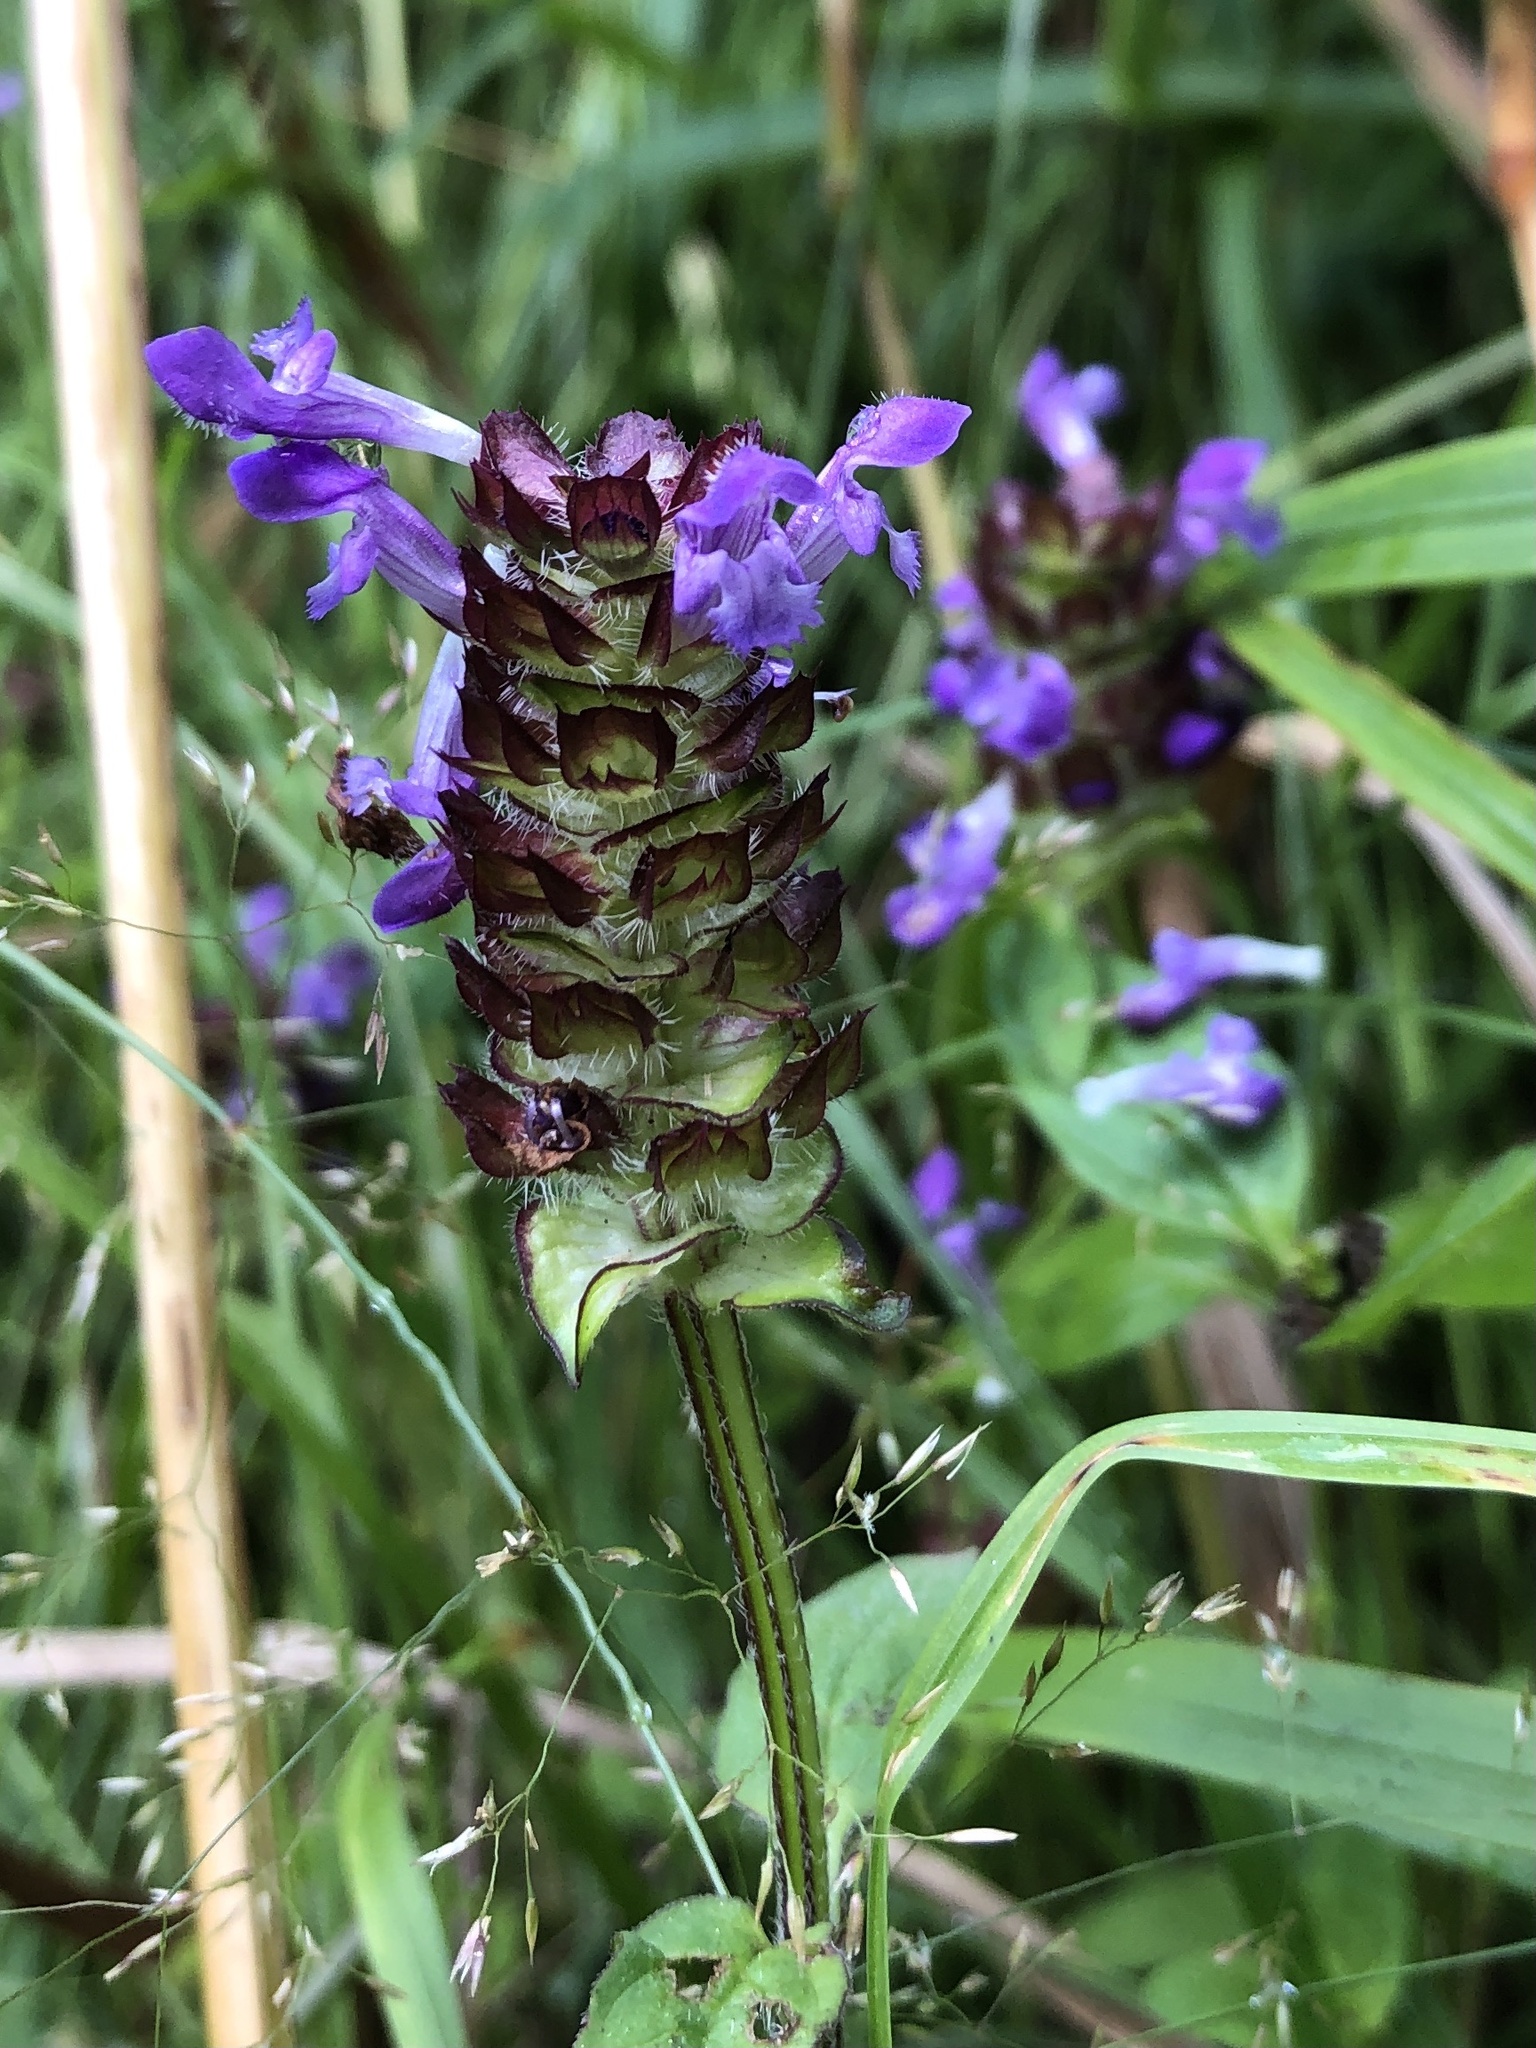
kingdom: Plantae
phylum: Tracheophyta
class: Magnoliopsida
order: Lamiales
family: Lamiaceae
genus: Prunella
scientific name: Prunella vulgaris
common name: Heal-all
